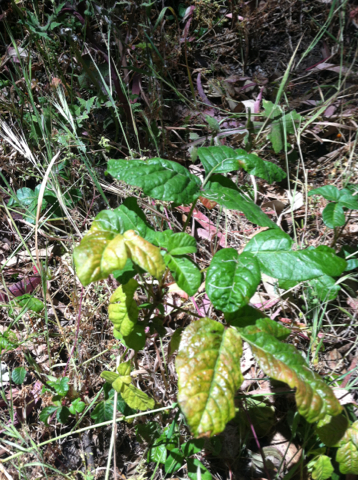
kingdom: Plantae
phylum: Tracheophyta
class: Magnoliopsida
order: Sapindales
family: Anacardiaceae
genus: Toxicodendron
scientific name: Toxicodendron diversilobum
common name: Pacific poison-oak
